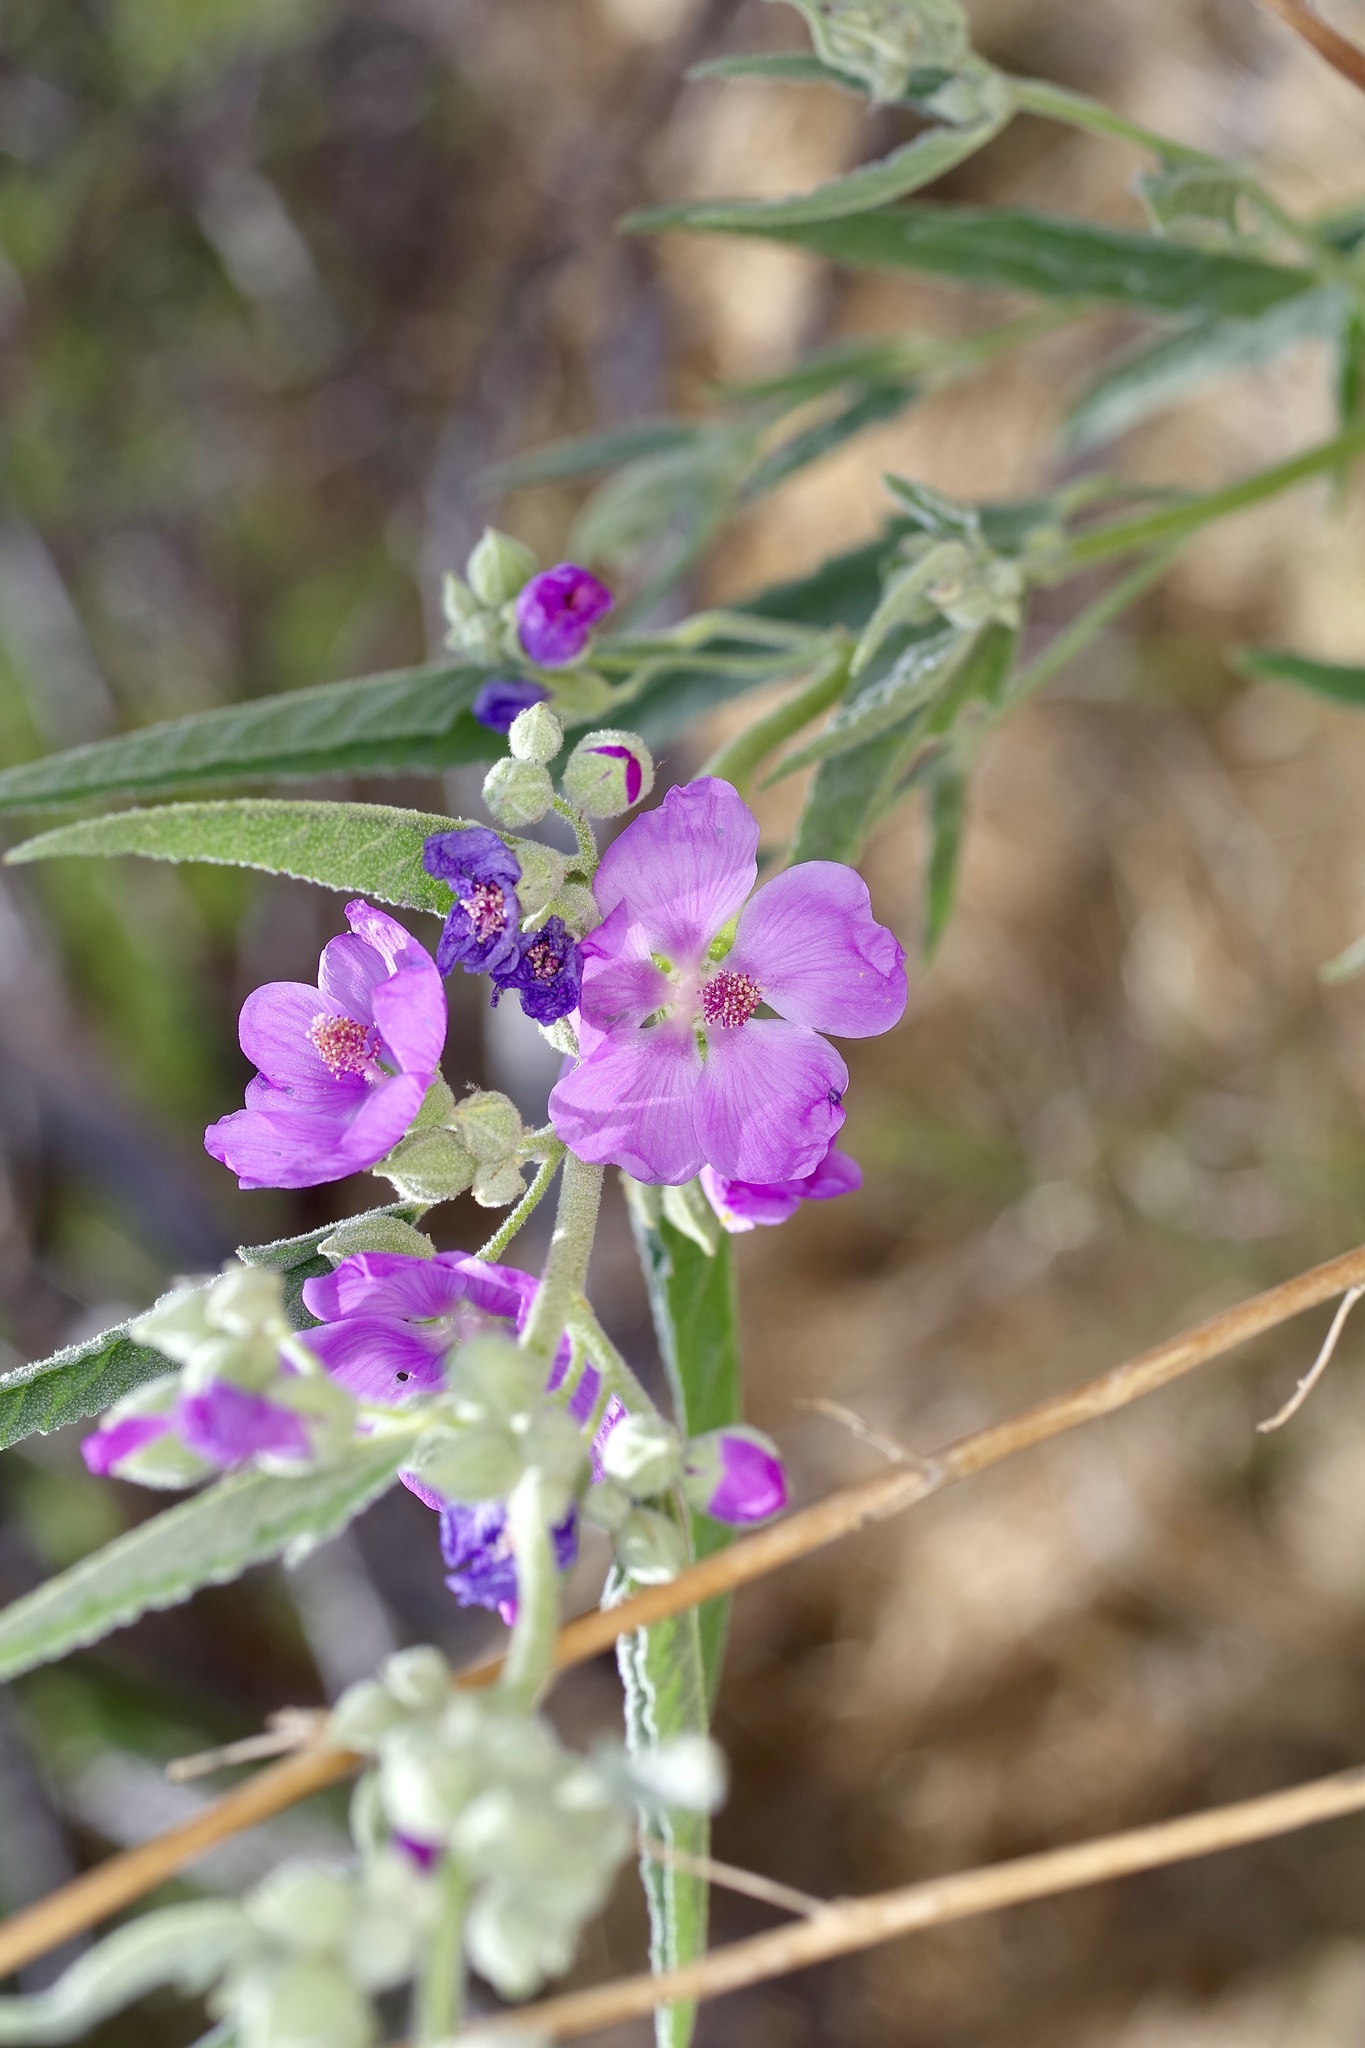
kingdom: Plantae
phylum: Tracheophyta
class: Magnoliopsida
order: Malvales
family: Malvaceae
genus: Sphaeralcea
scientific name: Sphaeralcea angustifolia
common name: Copper globe-mallow
